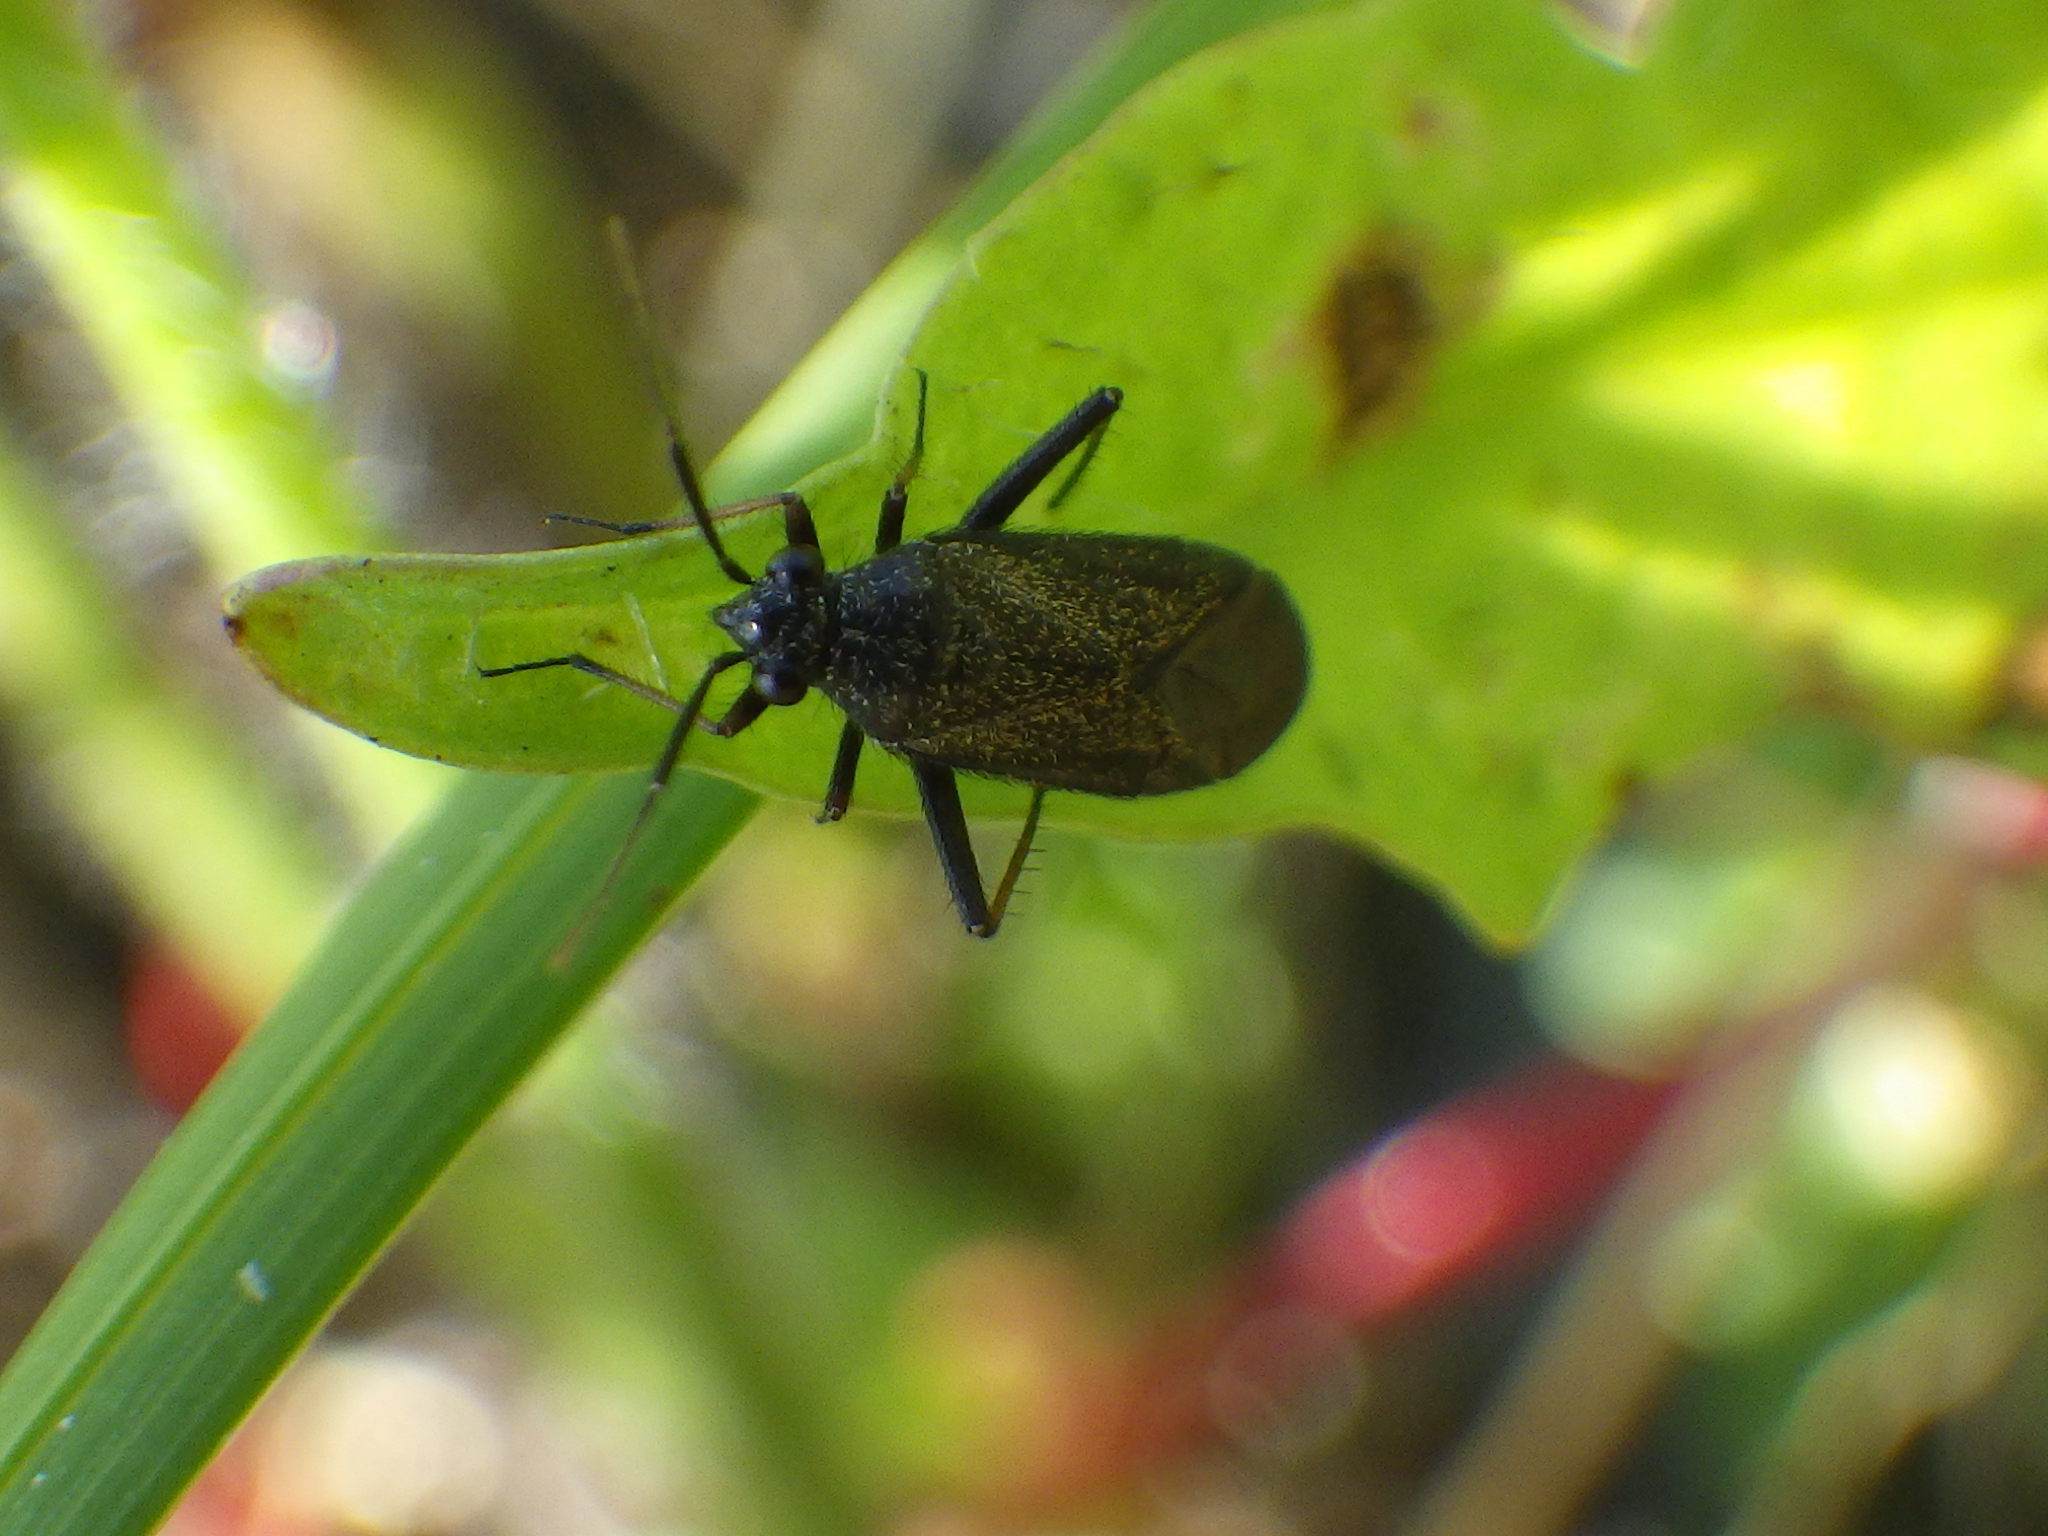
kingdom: Animalia
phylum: Arthropoda
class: Insecta
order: Hemiptera
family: Miridae
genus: Orthocephalus
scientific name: Orthocephalus saltator
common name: Plant bug
